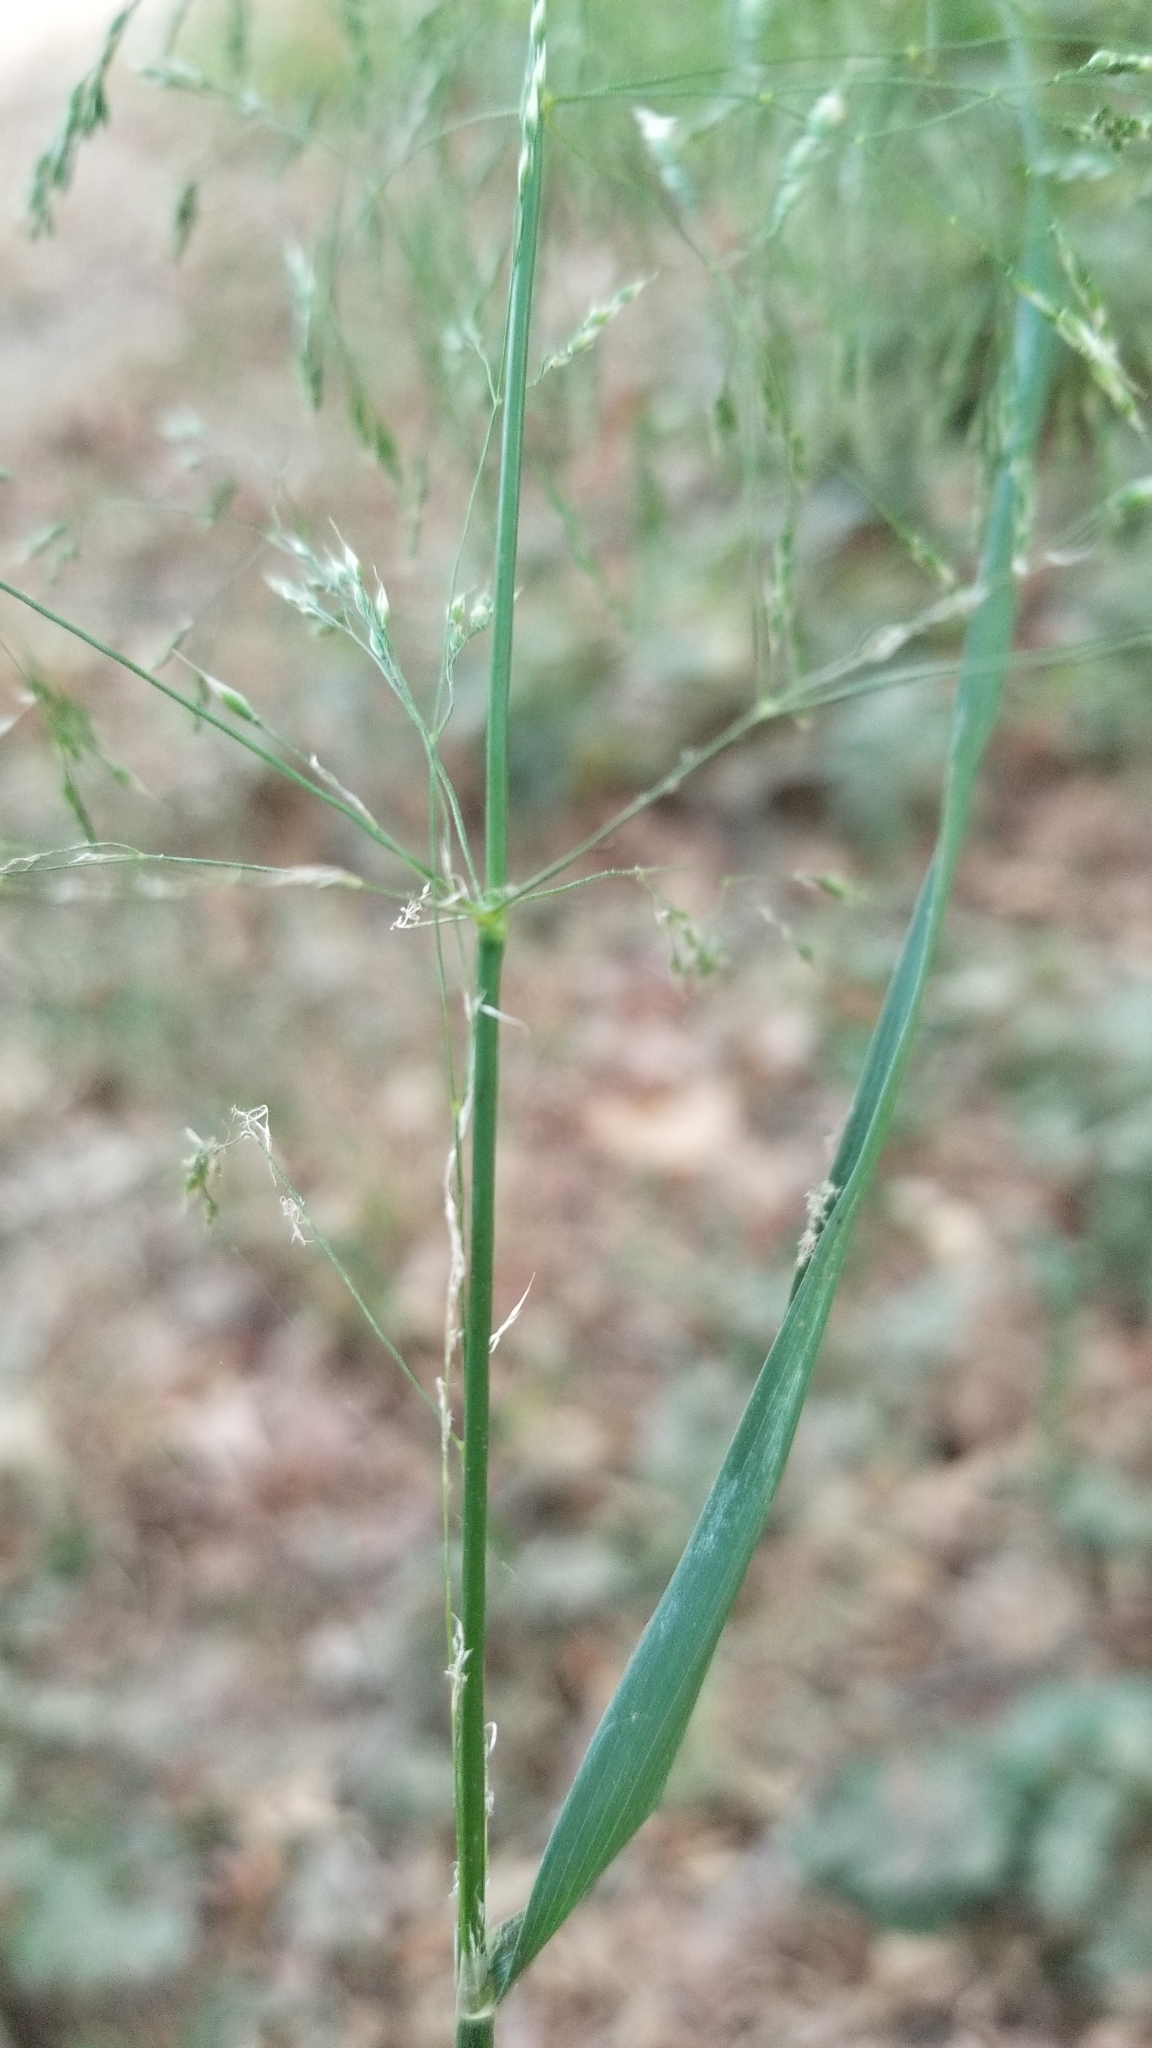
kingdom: Plantae
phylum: Tracheophyta
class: Liliopsida
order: Poales
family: Poaceae
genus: Oloptum
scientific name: Oloptum miliaceum
